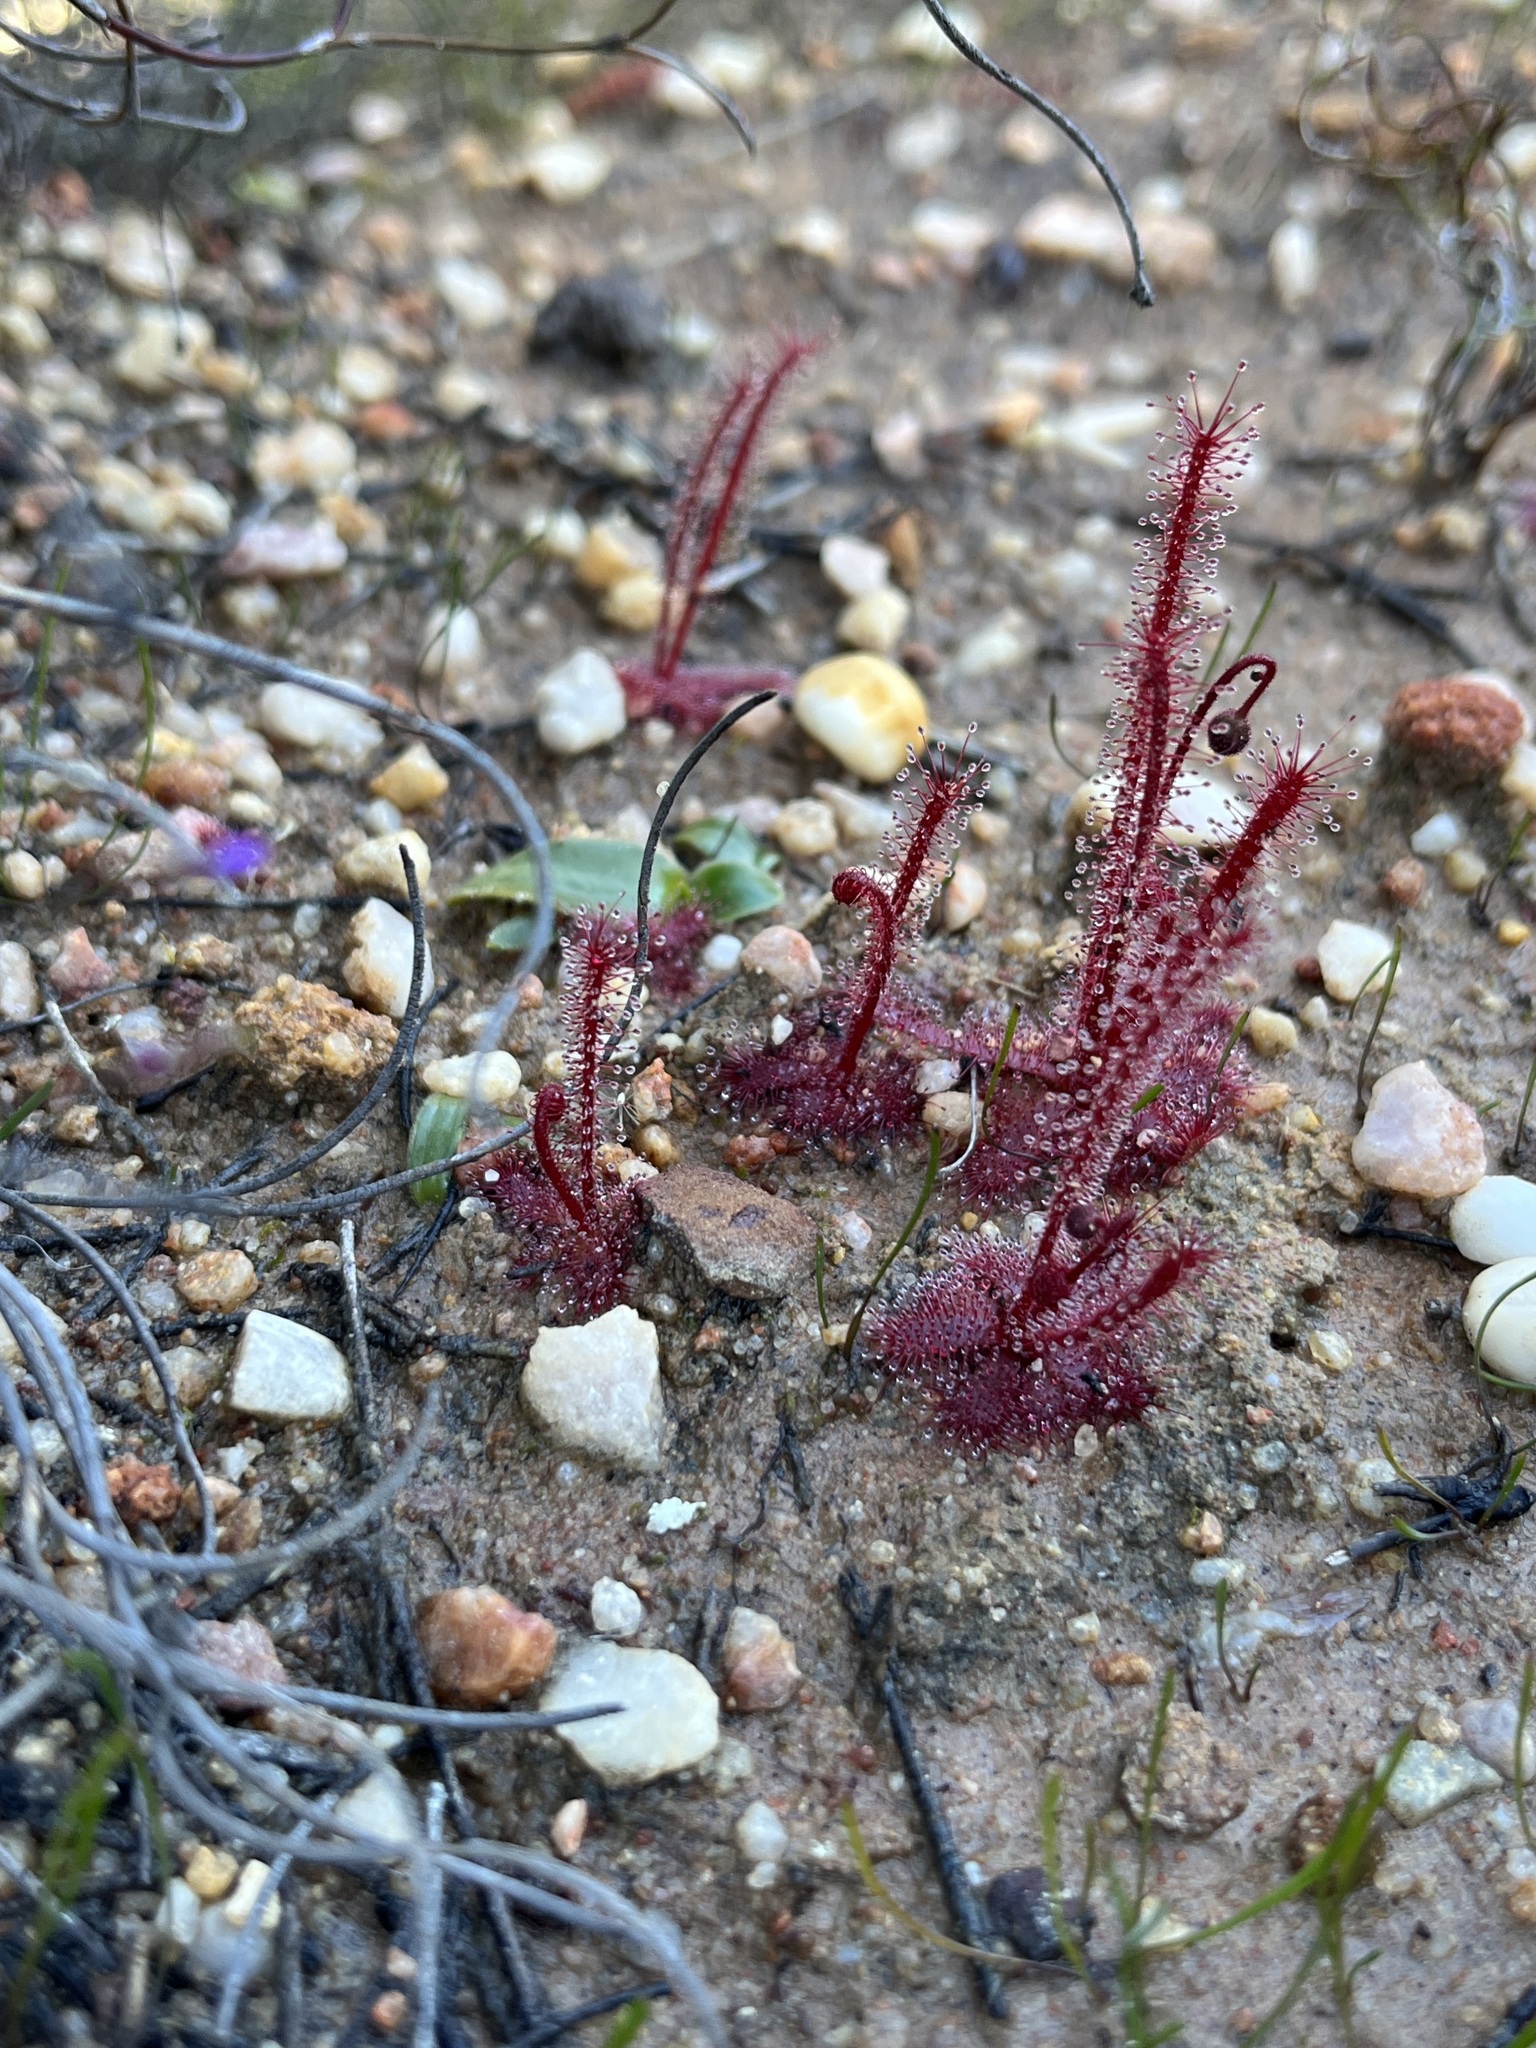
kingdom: Plantae
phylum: Tracheophyta
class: Magnoliopsida
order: Caryophyllales
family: Droseraceae
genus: Drosera
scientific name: Drosera alba
